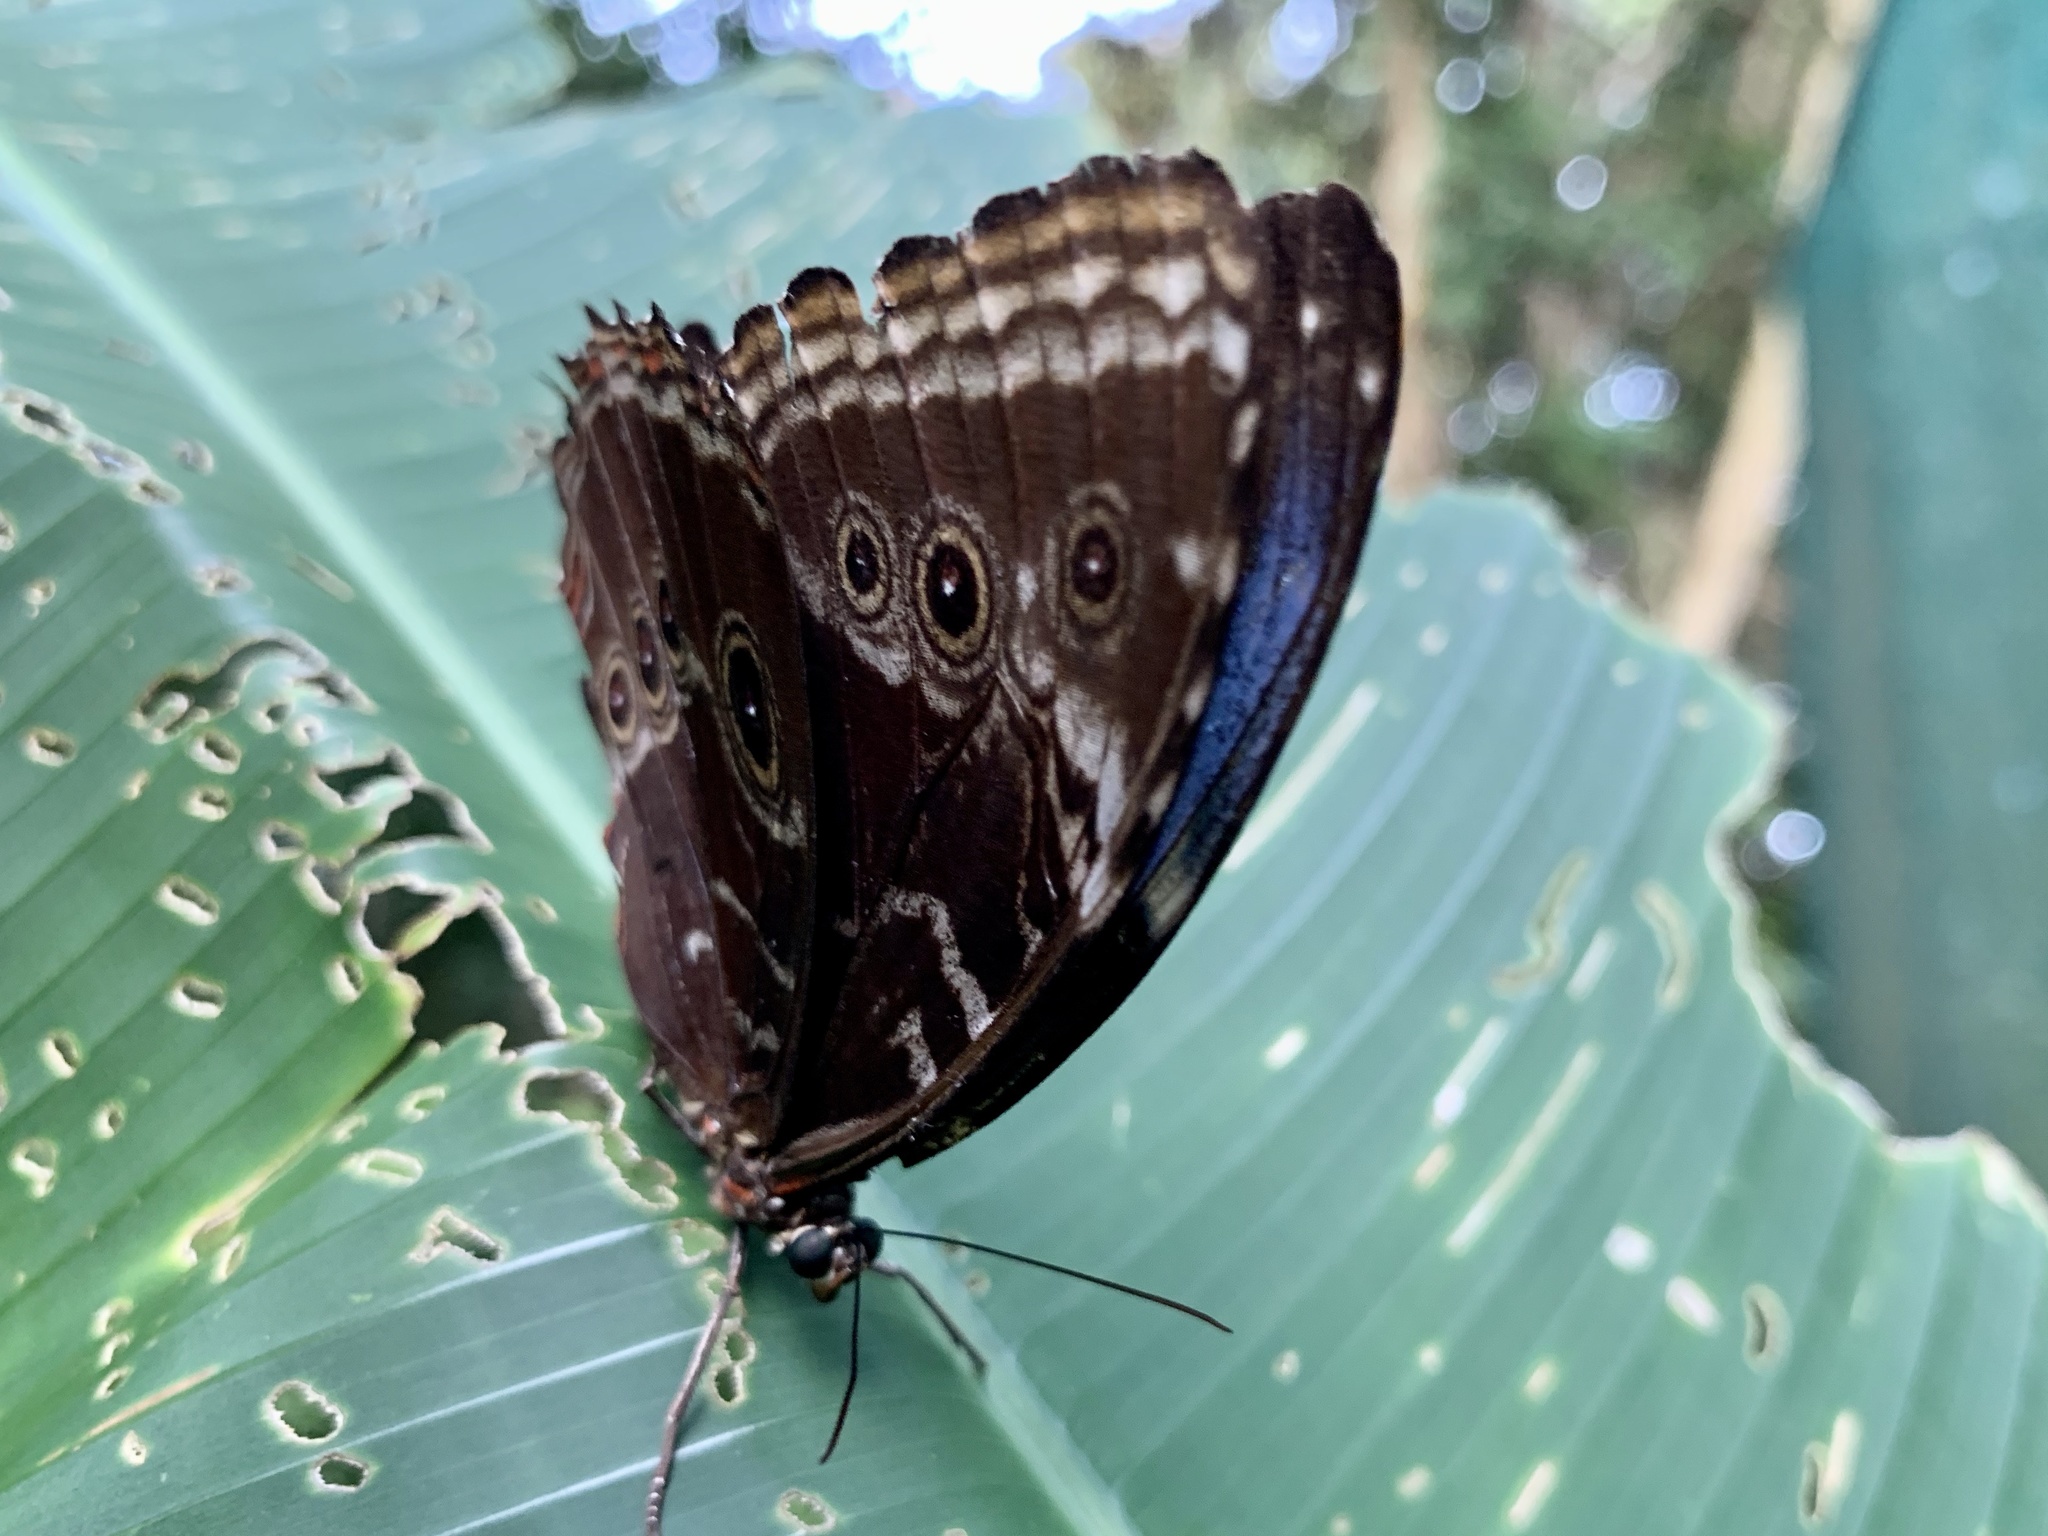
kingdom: Animalia
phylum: Arthropoda
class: Insecta
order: Lepidoptera
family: Nymphalidae
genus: Morpho
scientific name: Morpho helenor
